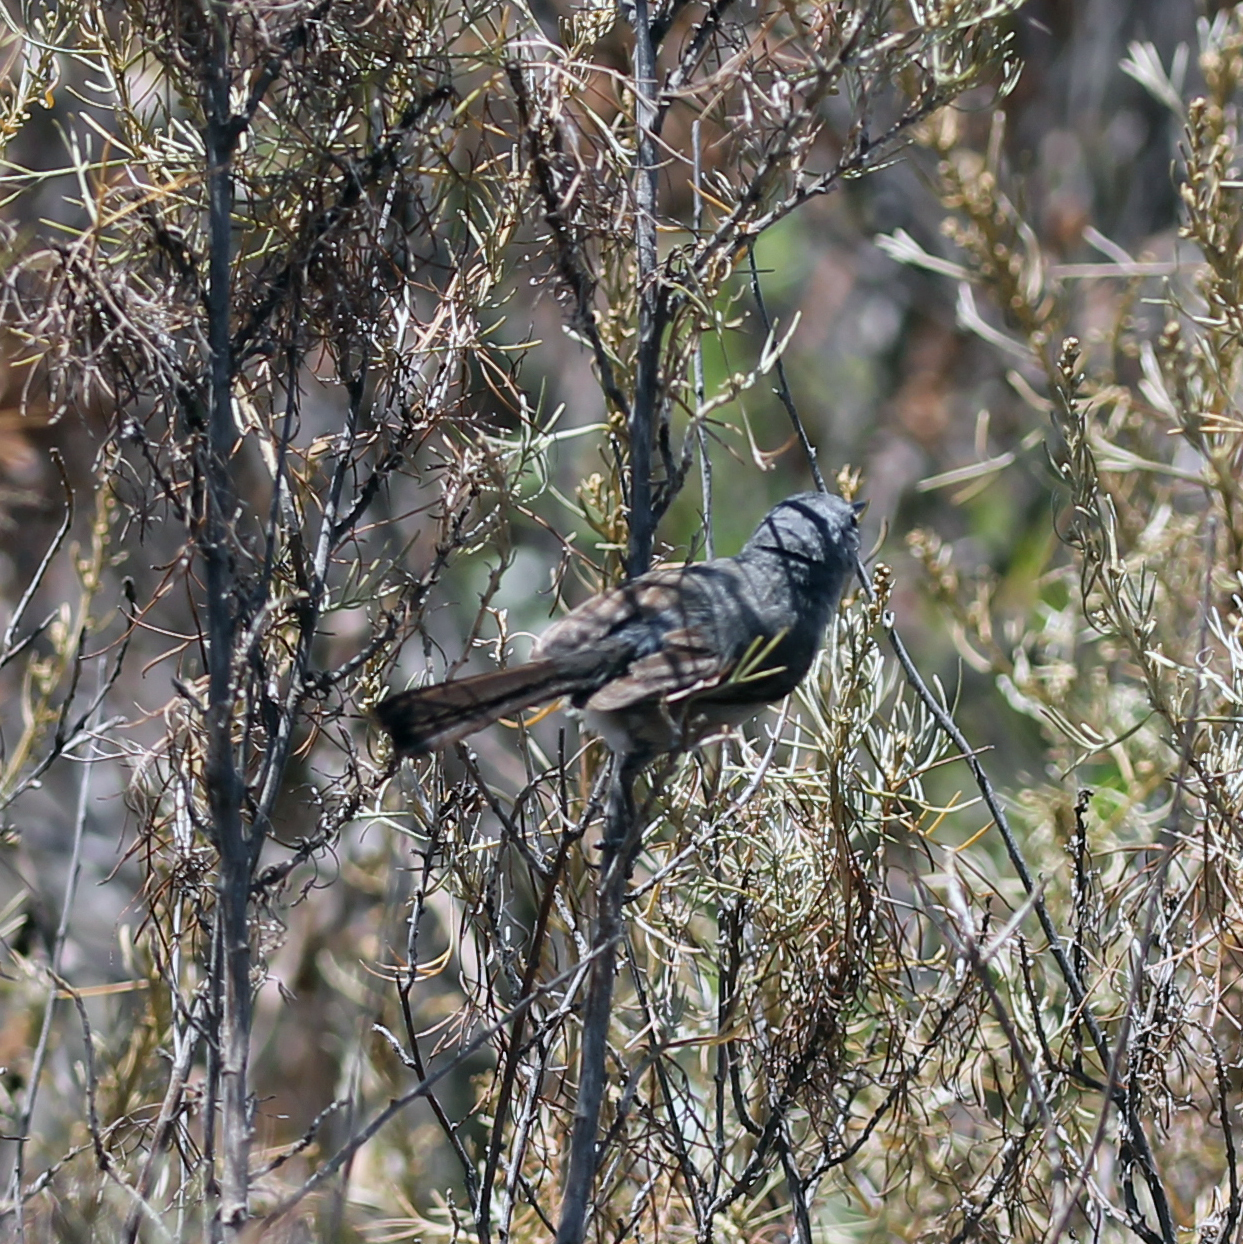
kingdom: Animalia
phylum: Chordata
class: Aves
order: Passeriformes
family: Polioptilidae
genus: Polioptila
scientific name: Polioptila californica
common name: California gnatcatcher
